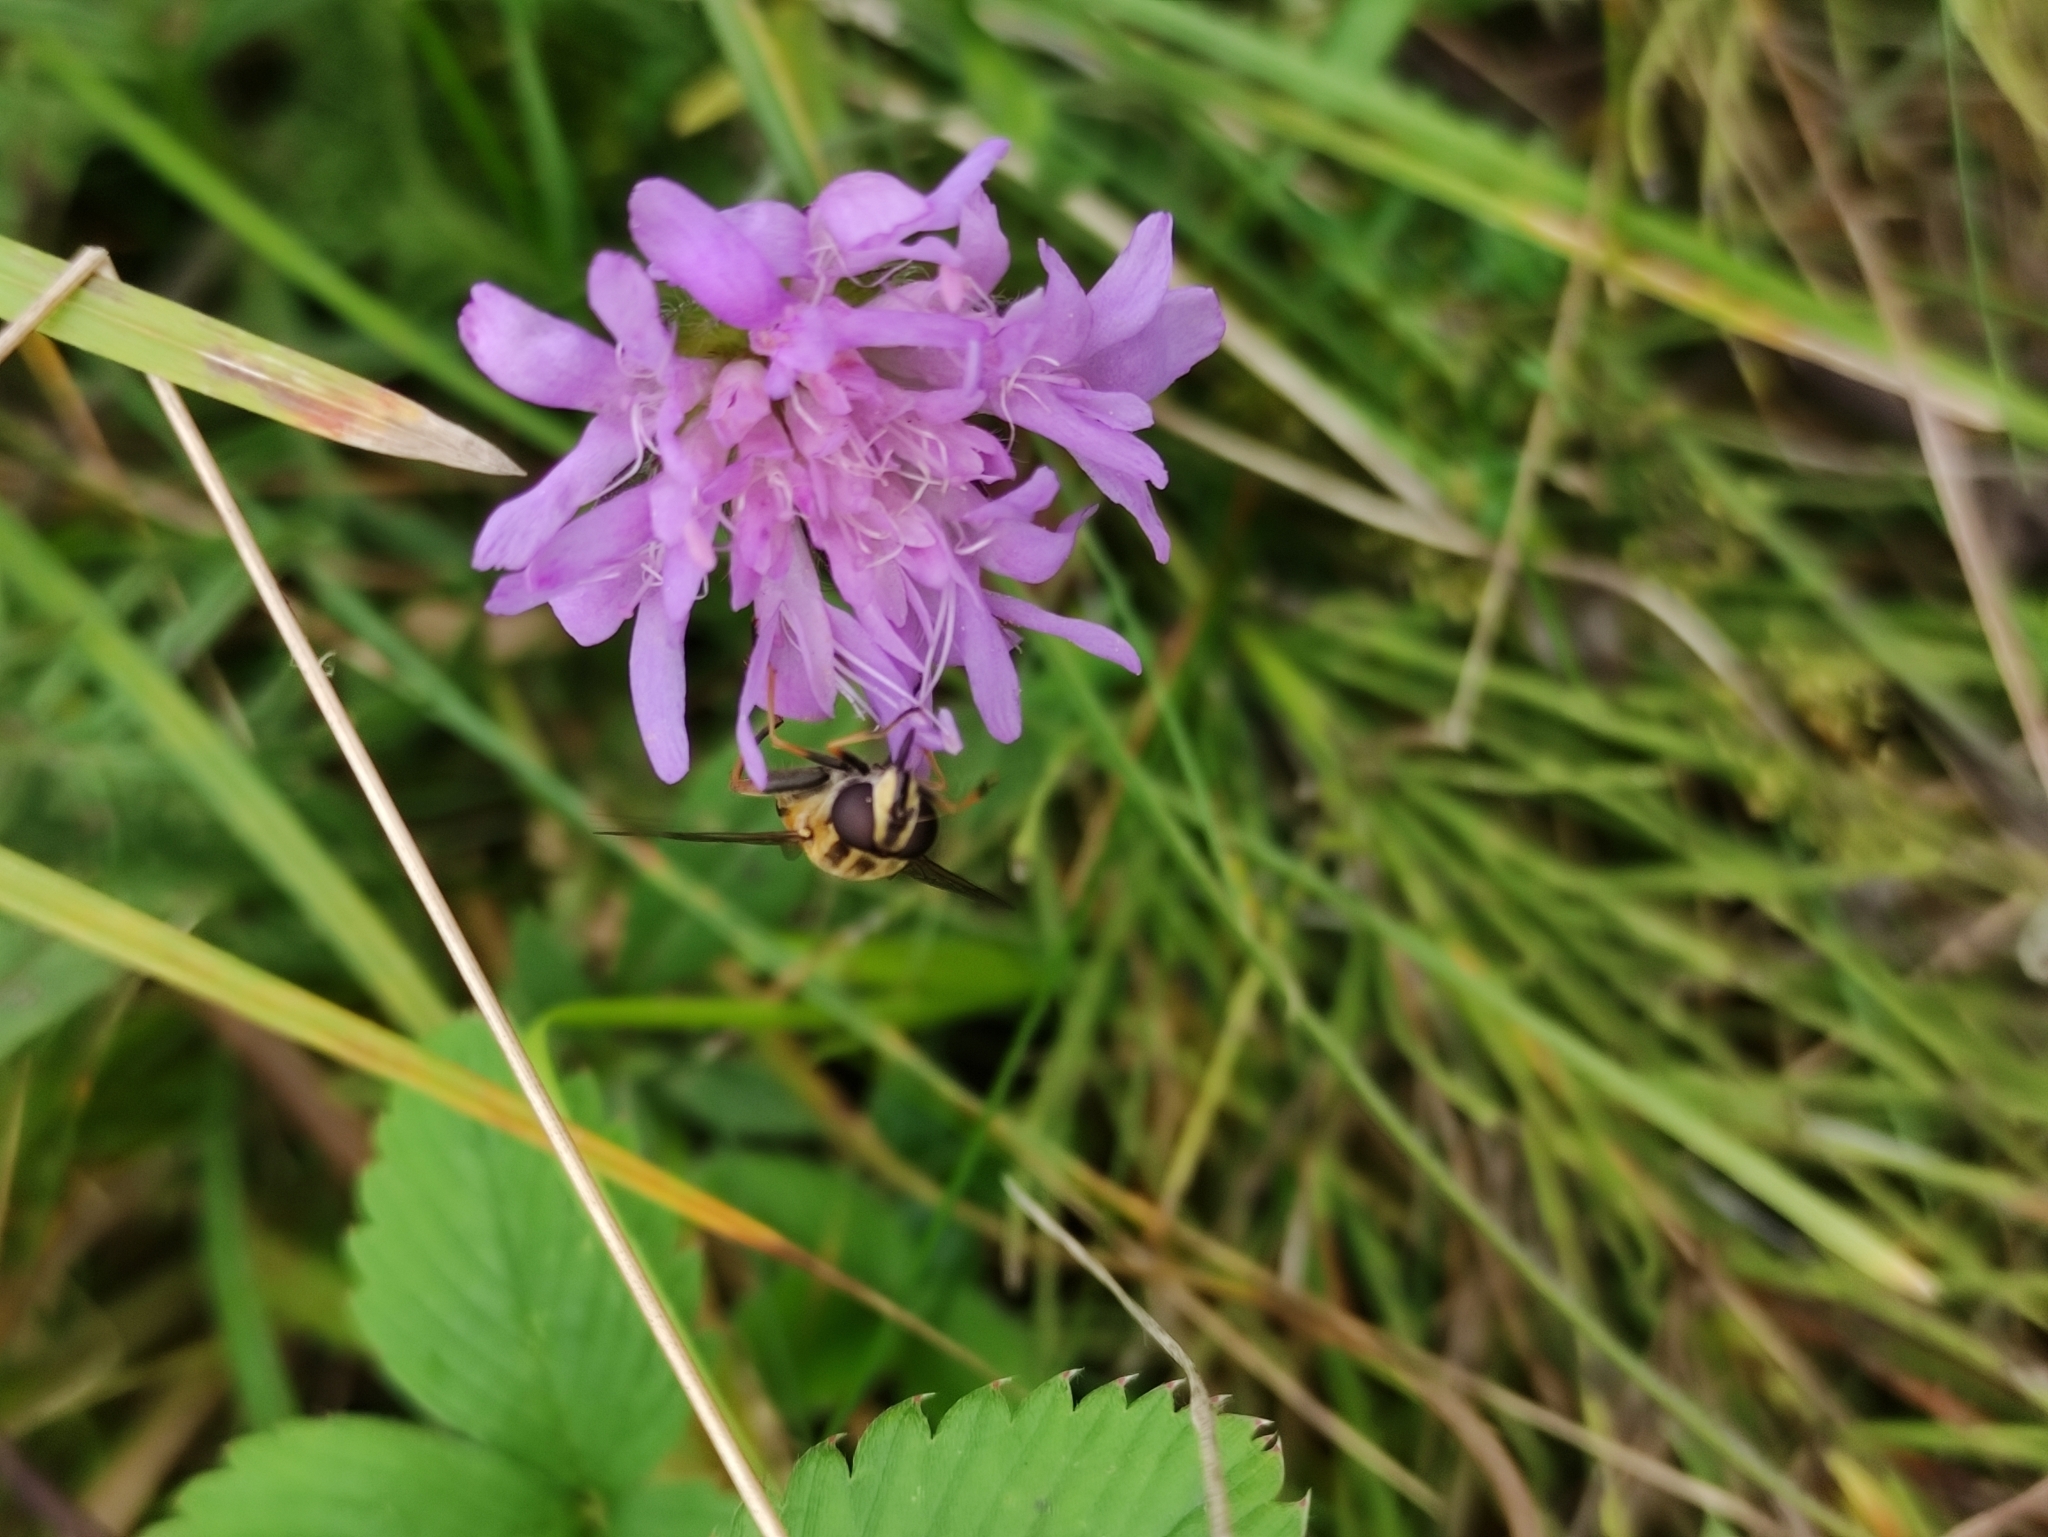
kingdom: Animalia
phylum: Arthropoda
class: Insecta
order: Diptera
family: Syrphidae
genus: Helophilus
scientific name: Helophilus pendulus
